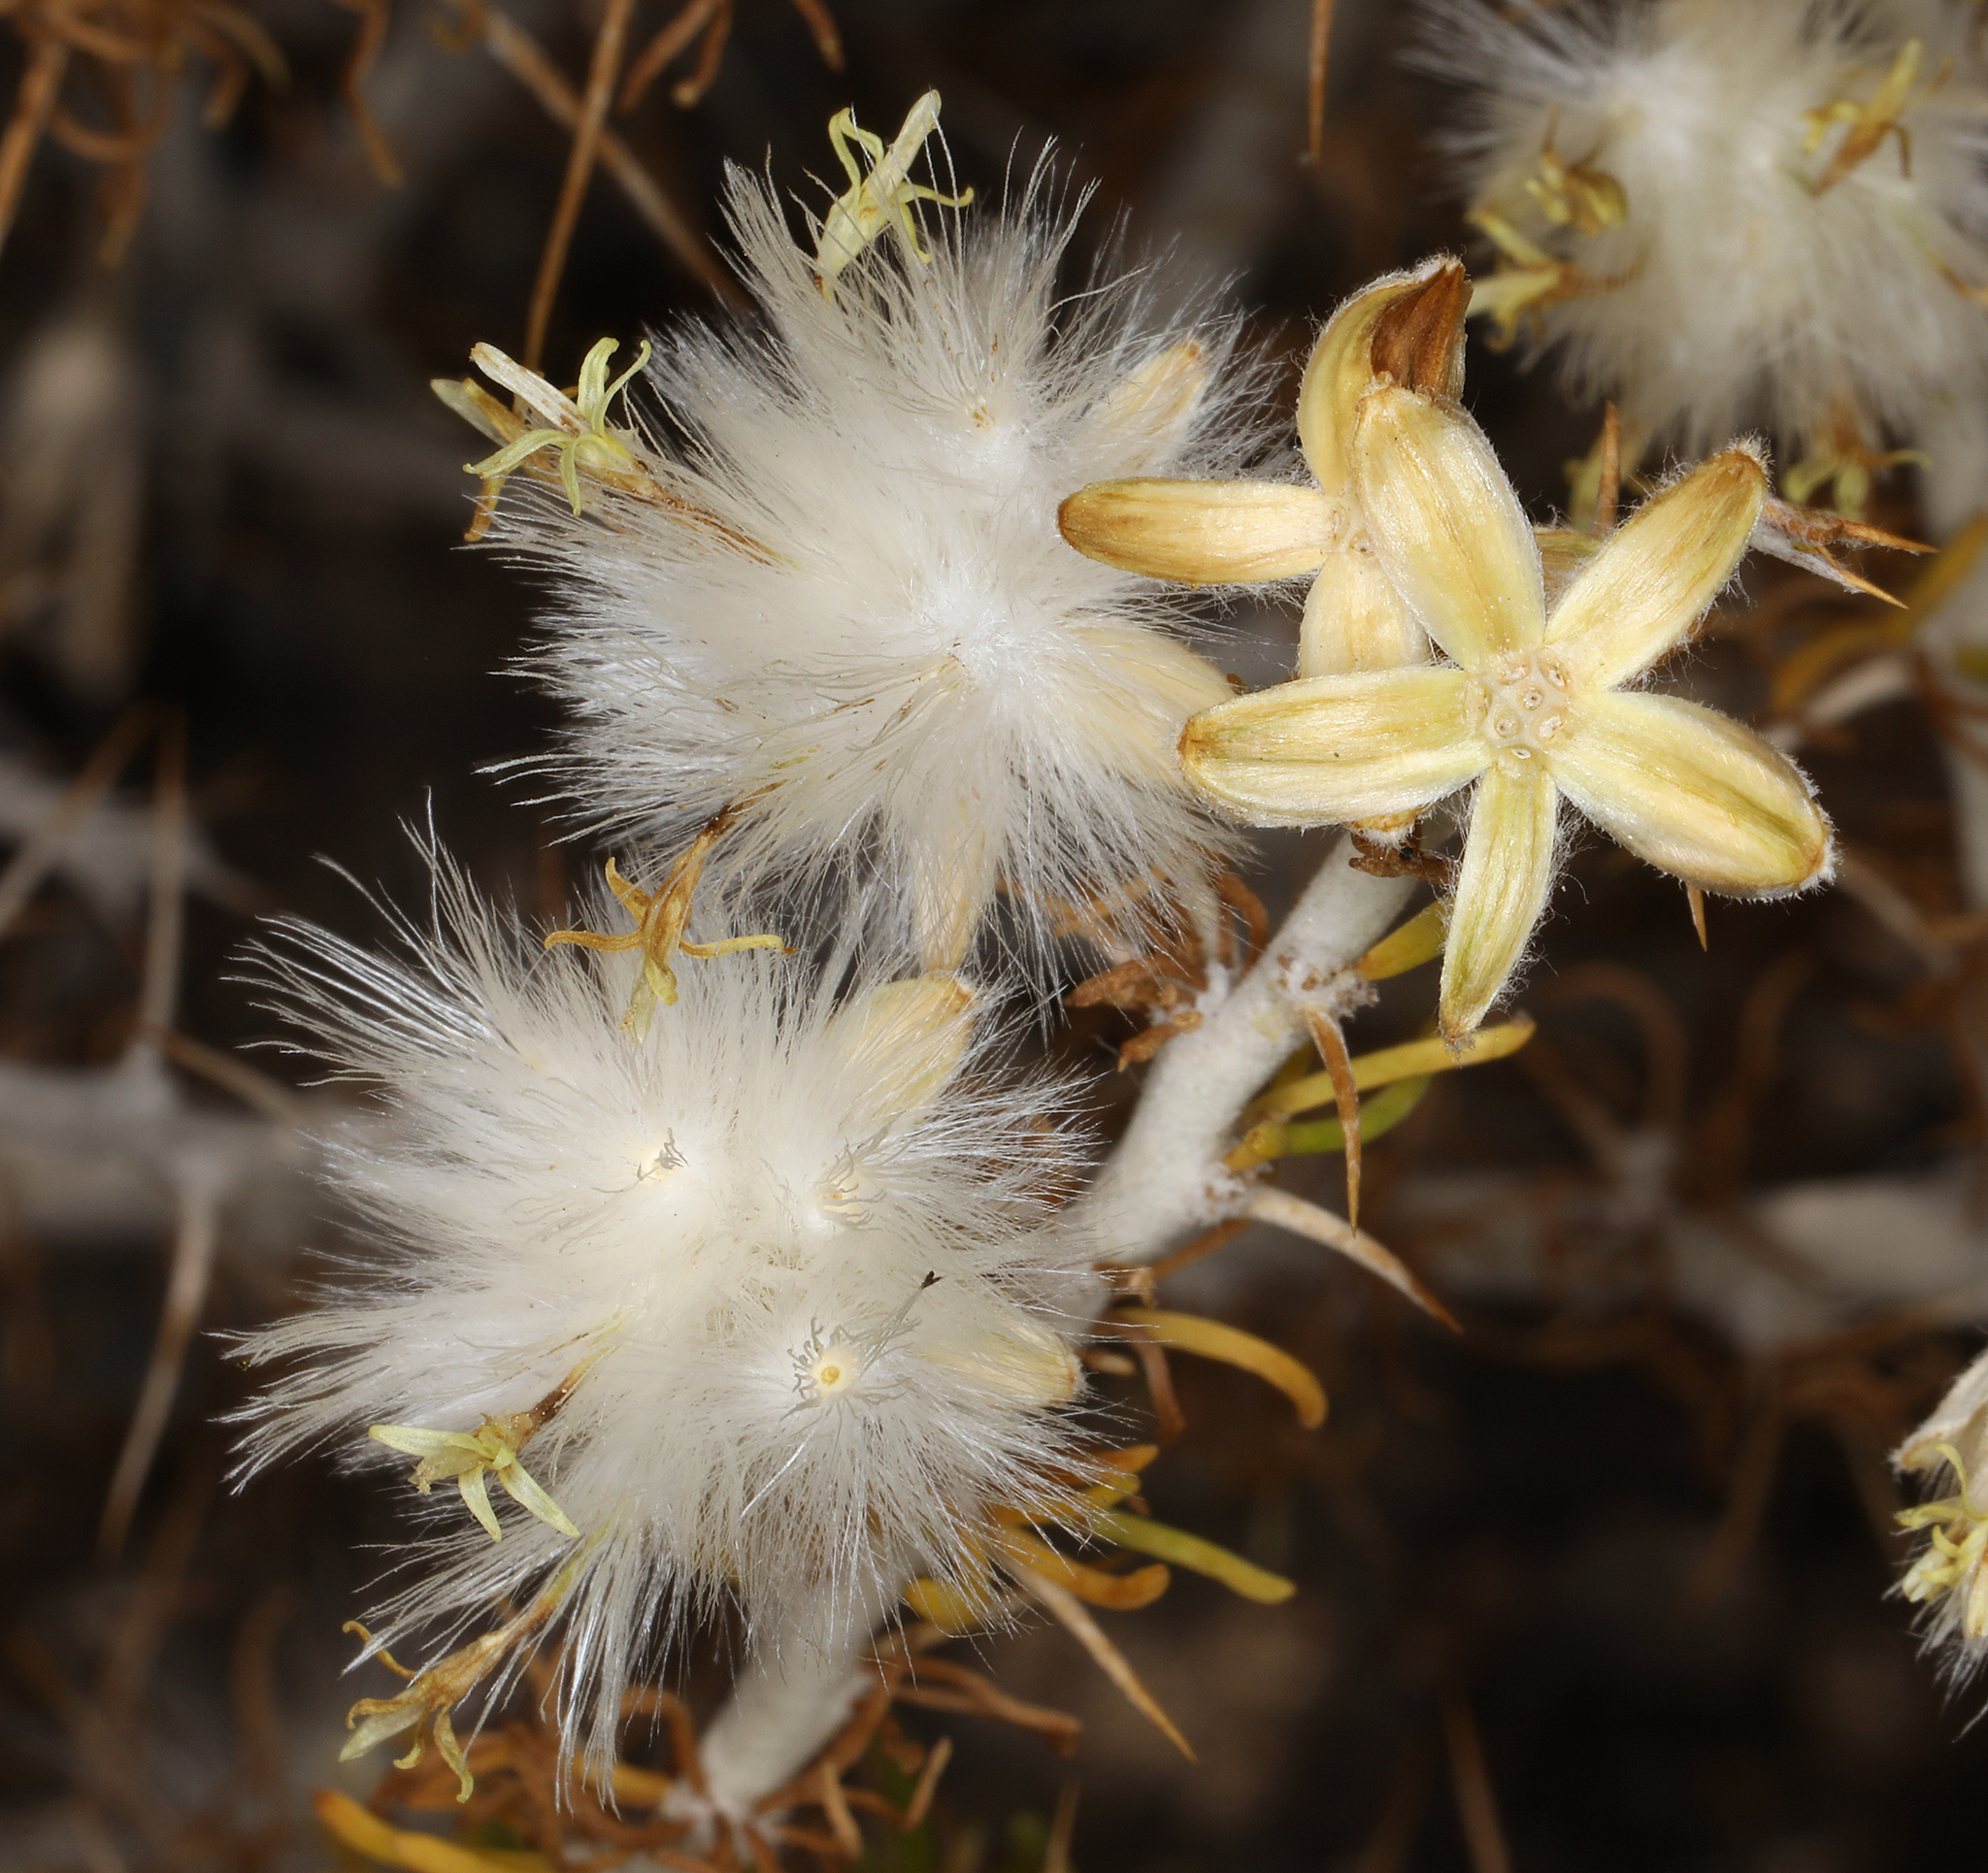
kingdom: Plantae
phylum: Tracheophyta
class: Magnoliopsida
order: Asterales
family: Asteraceae
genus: Tetradymia
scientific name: Tetradymia spinosa
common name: Thorny horsebrush
